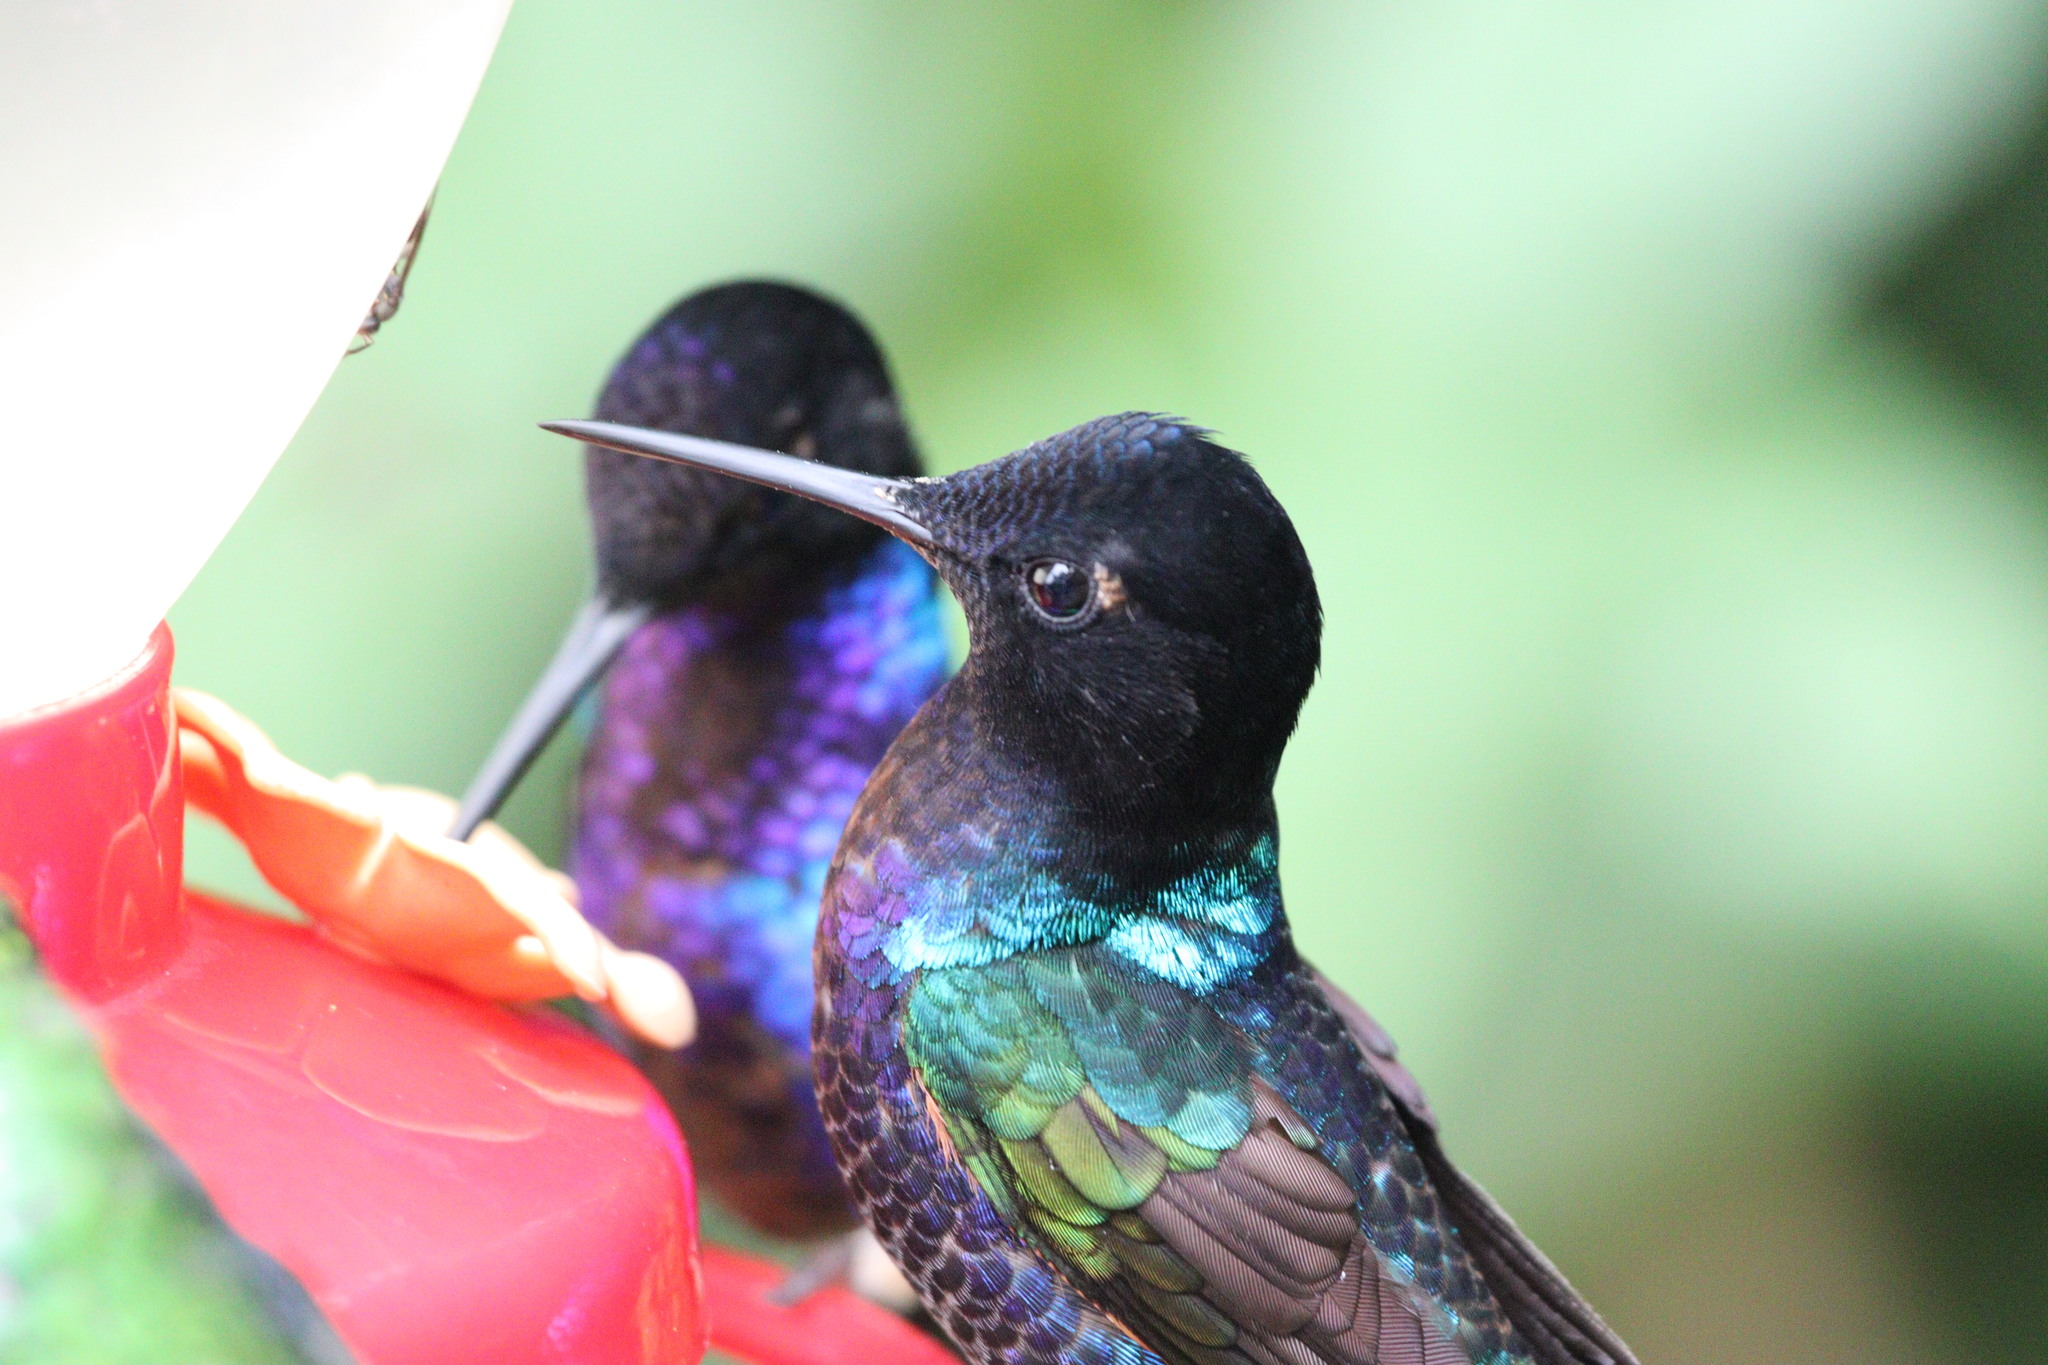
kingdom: Animalia
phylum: Chordata
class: Aves
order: Apodiformes
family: Trochilidae
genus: Boissonneaua
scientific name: Boissonneaua jardini
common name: Velvet-purple coronet
